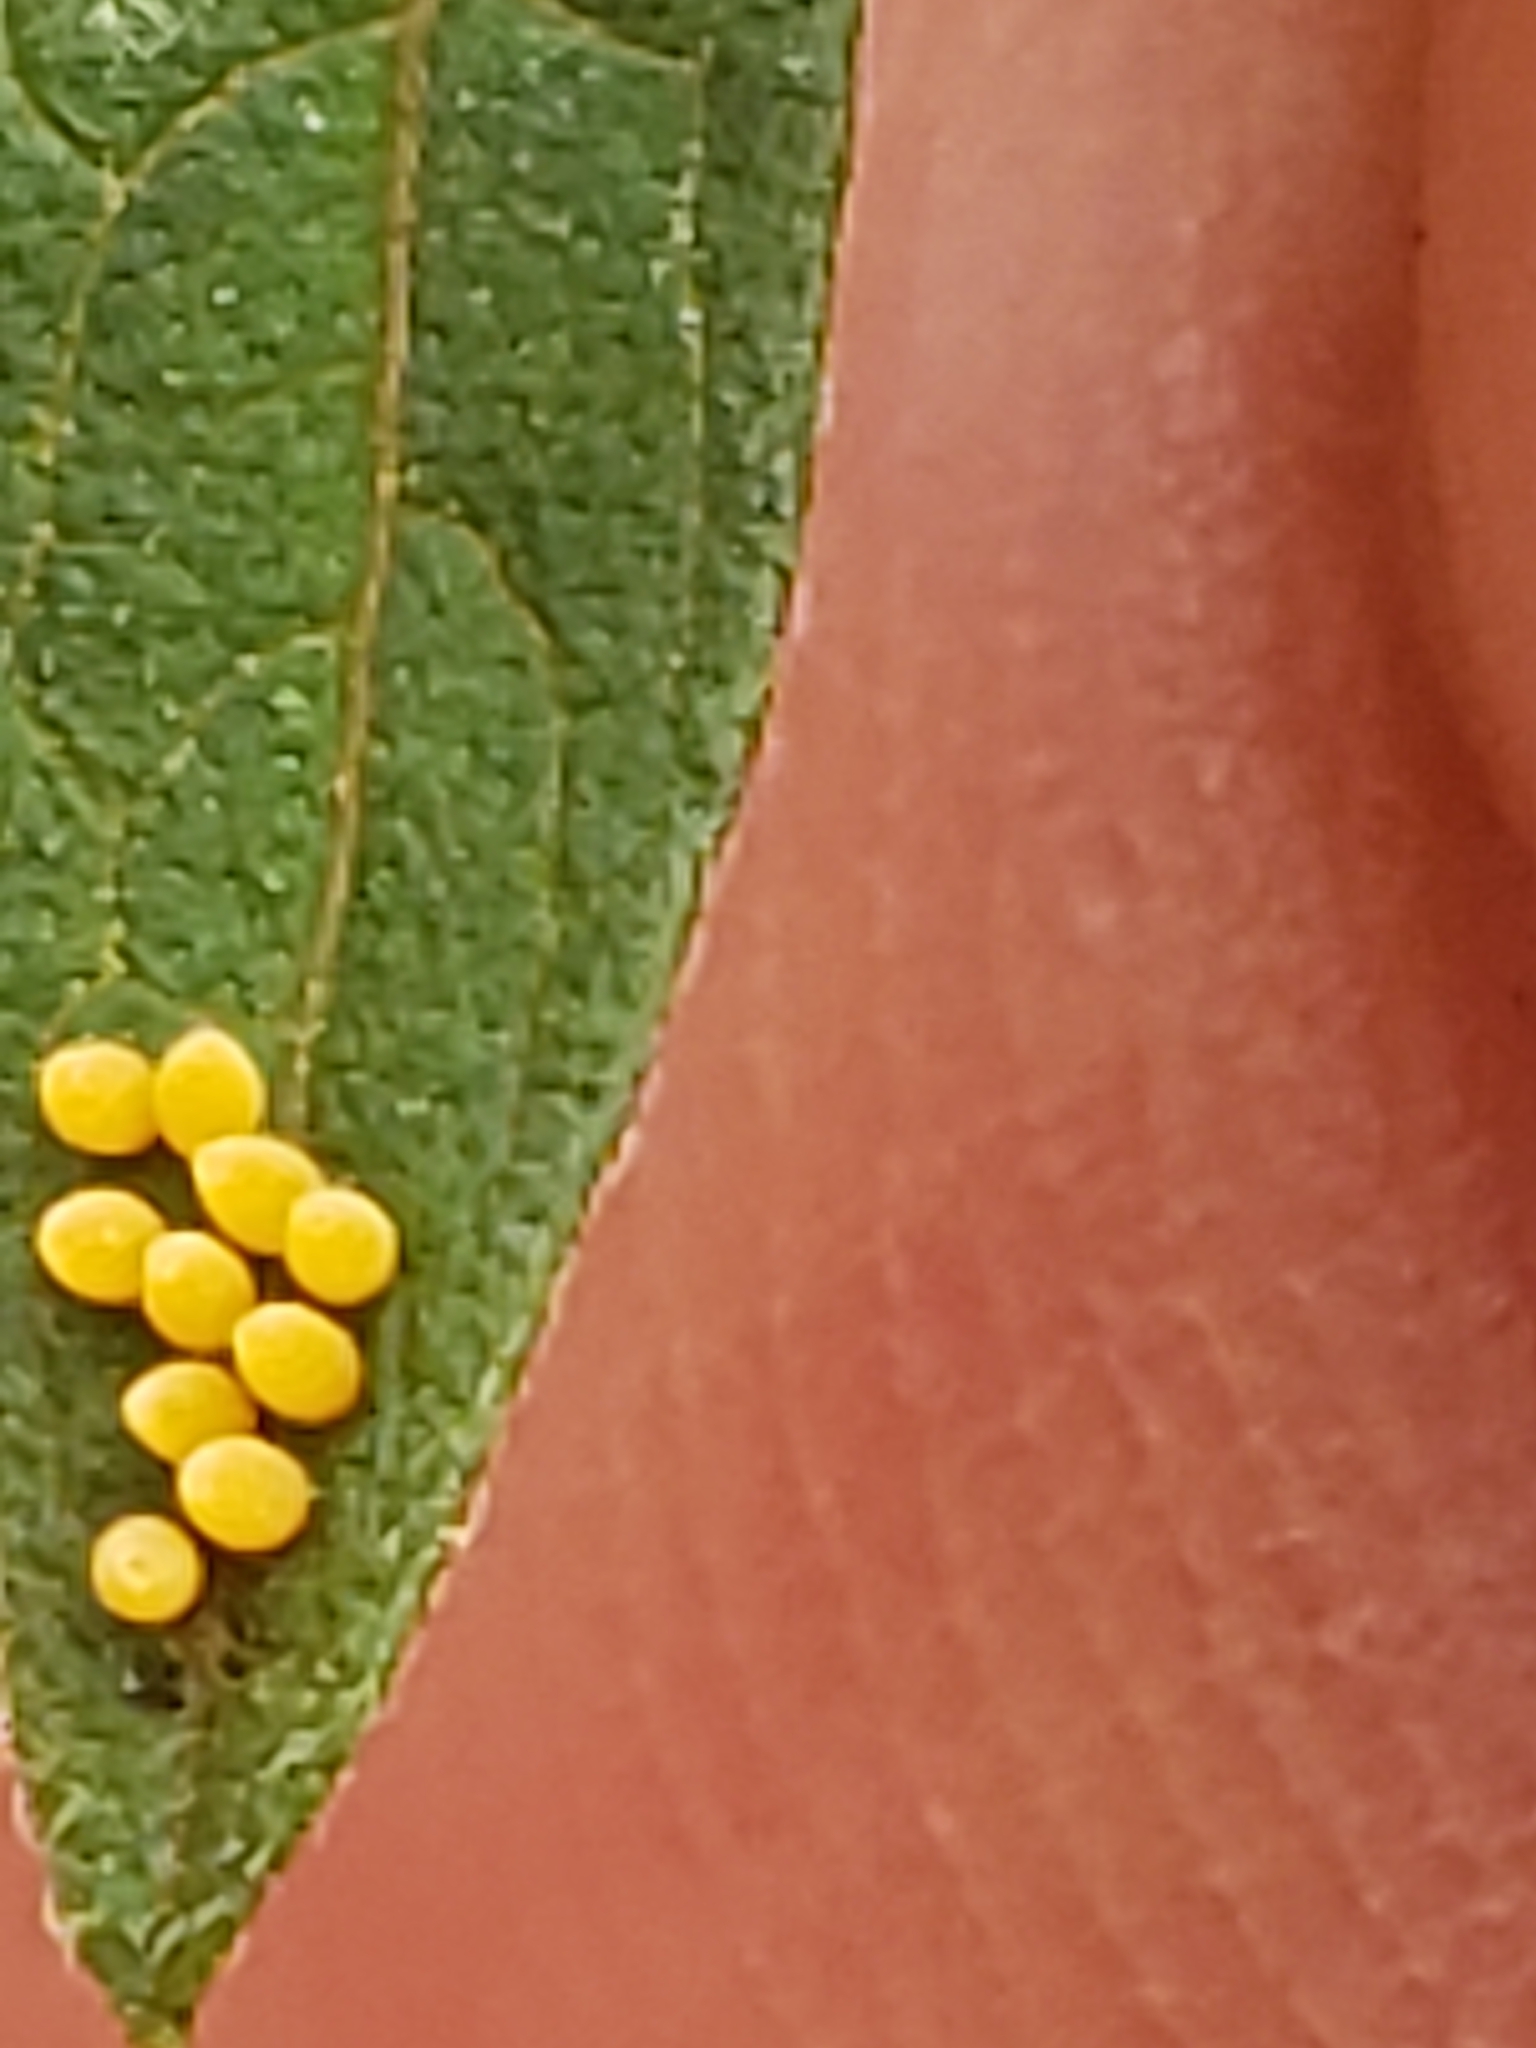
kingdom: Animalia
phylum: Arthropoda
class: Insecta
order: Coleoptera
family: Chrysomelidae
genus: Ophraella
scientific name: Ophraella communa
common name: Ragweed leaf beetle
